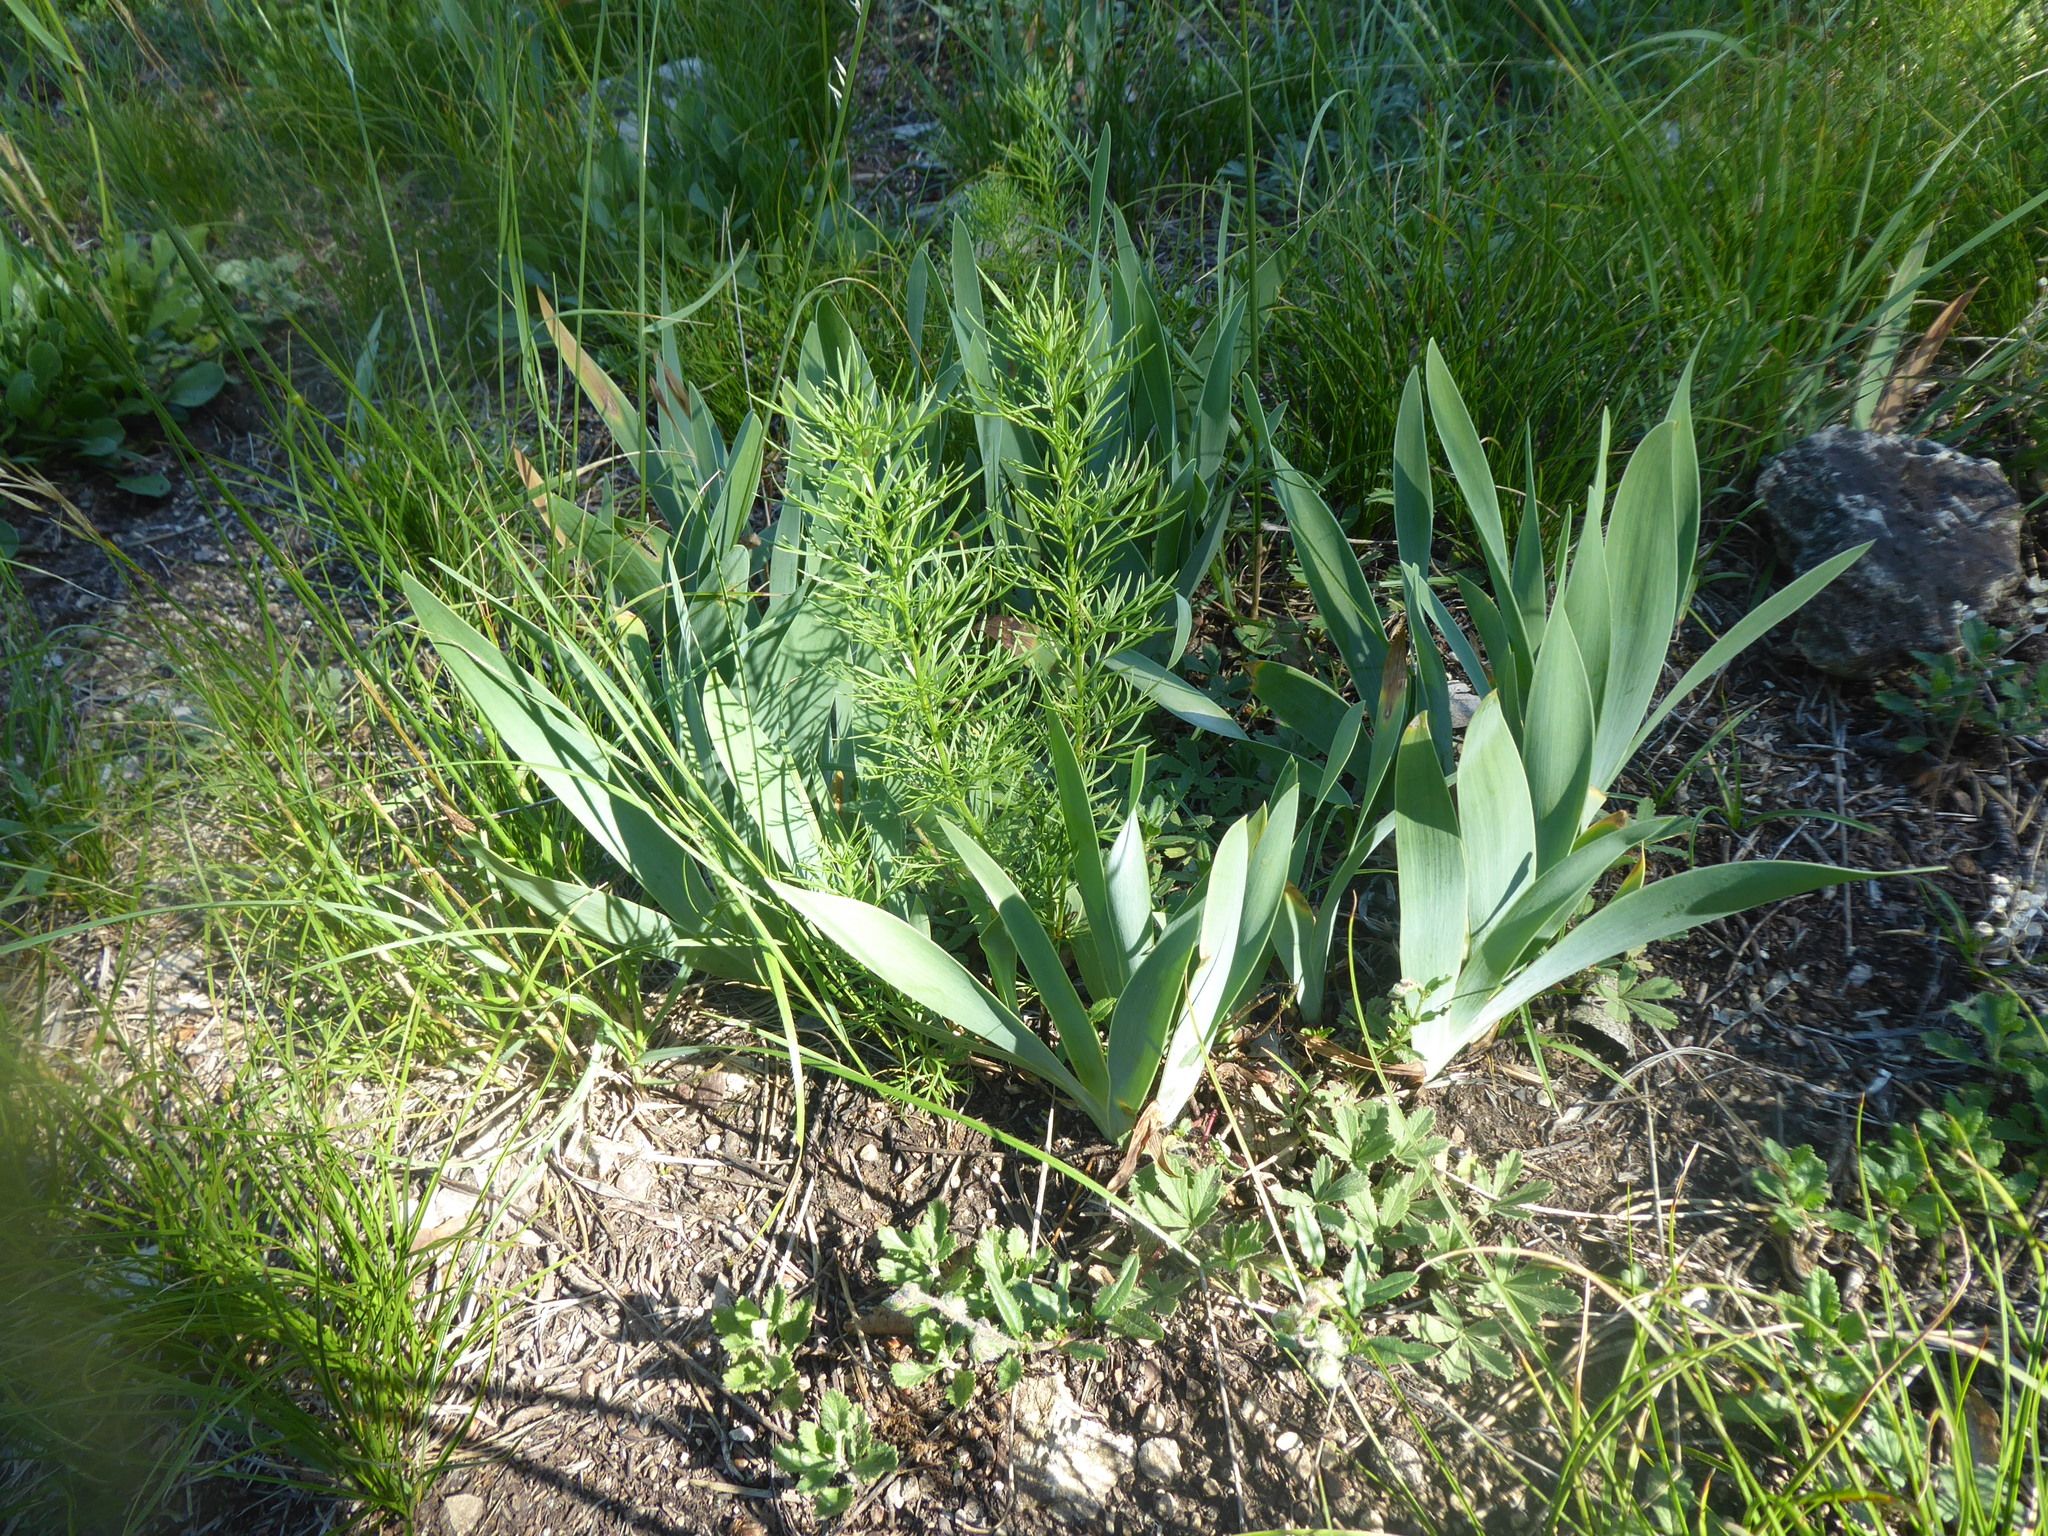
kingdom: Plantae
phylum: Tracheophyta
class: Liliopsida
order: Asparagales
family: Iridaceae
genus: Iris
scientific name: Iris pumila
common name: Dwarf iris
